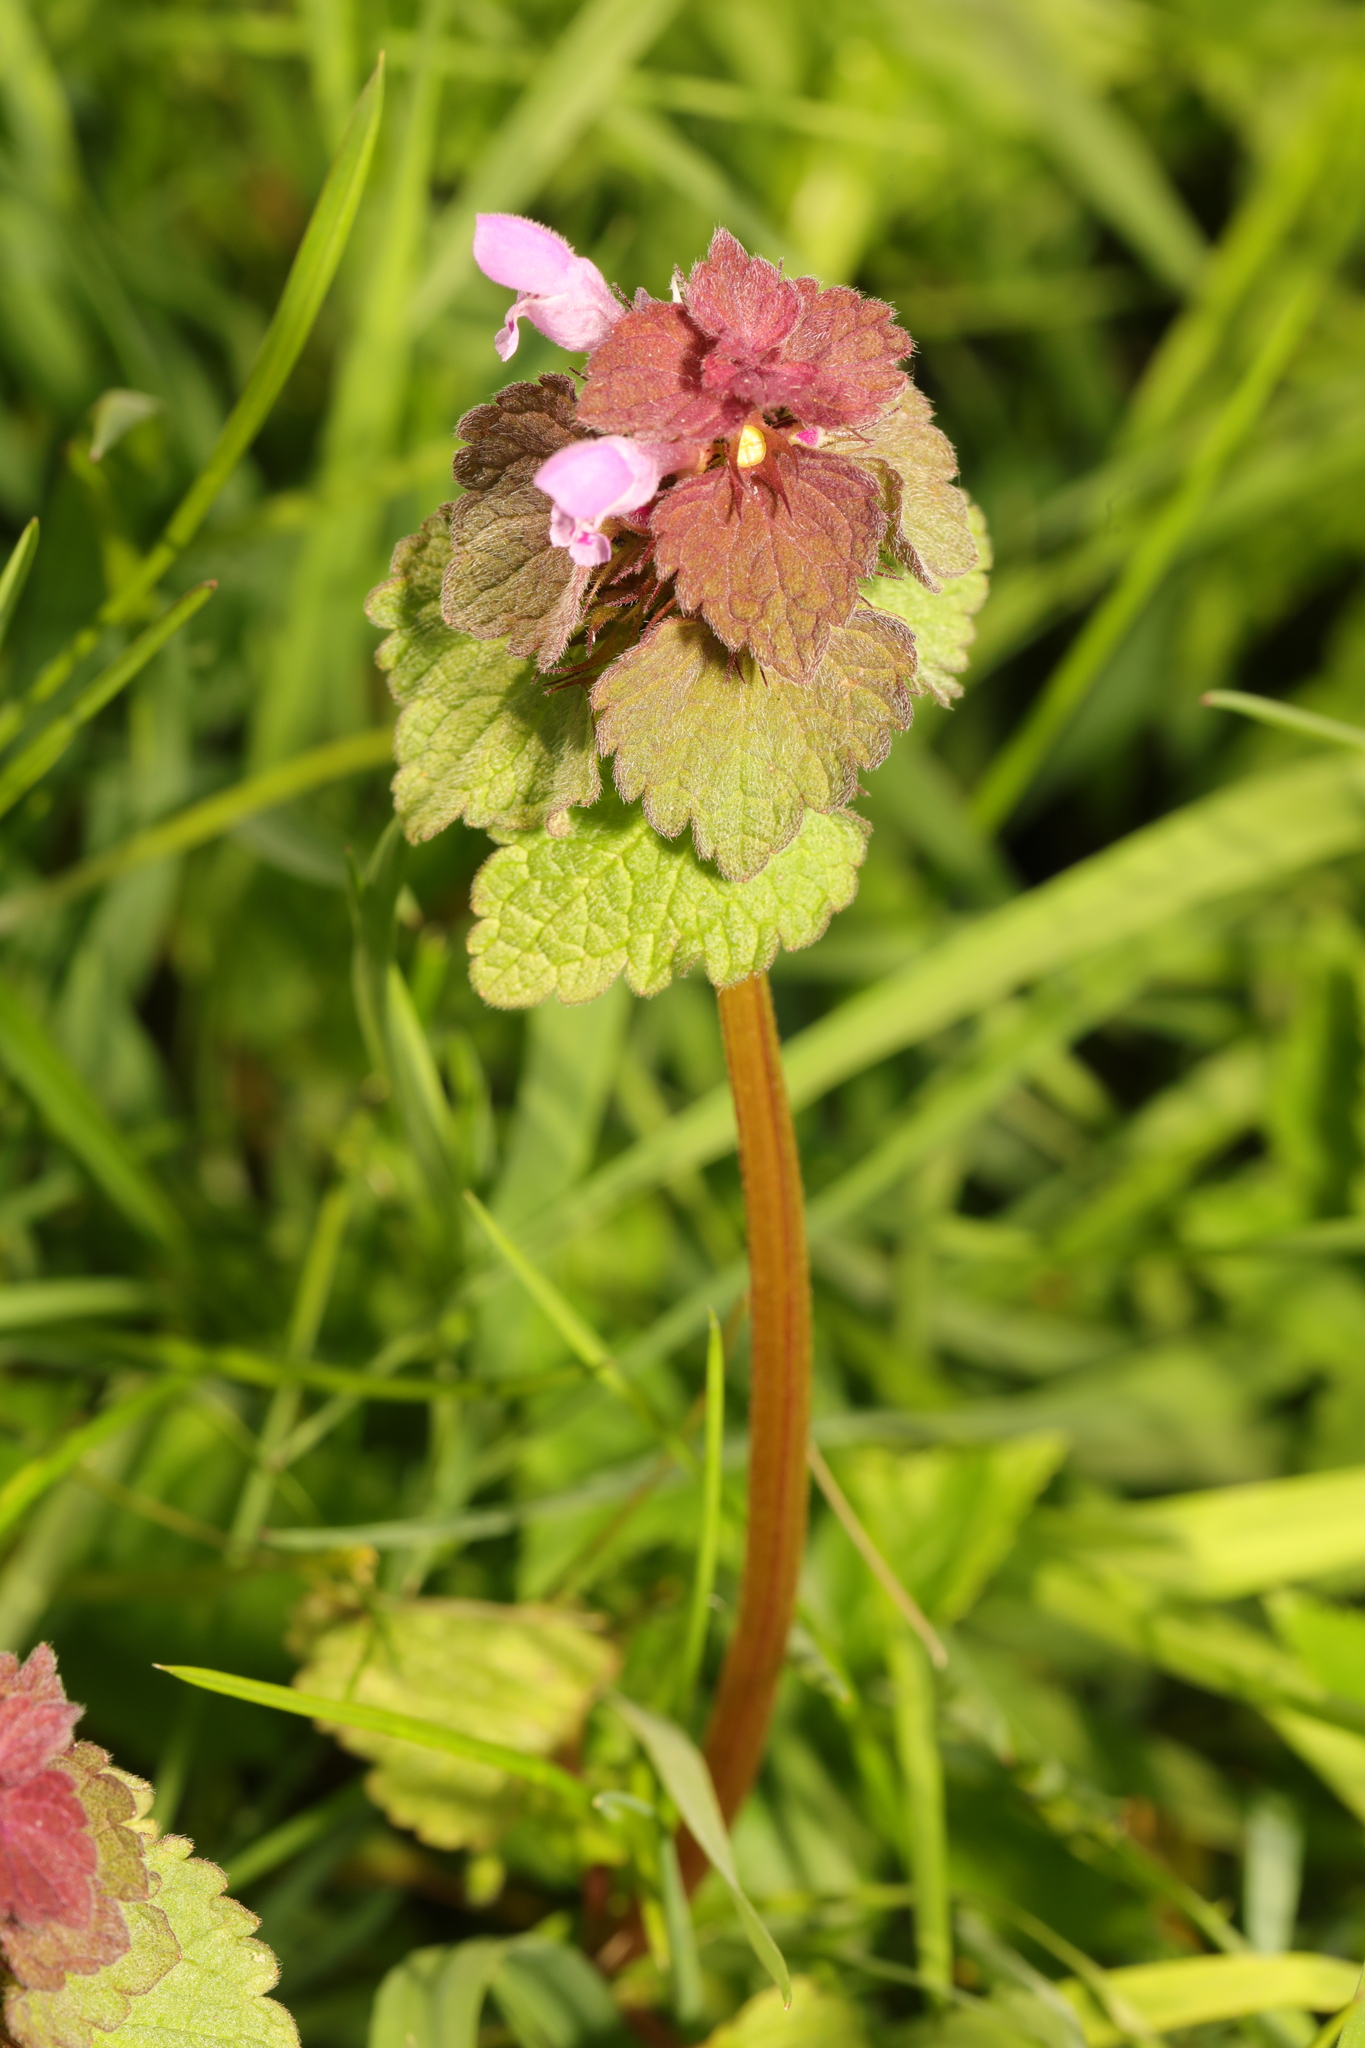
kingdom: Plantae
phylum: Tracheophyta
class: Magnoliopsida
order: Lamiales
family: Lamiaceae
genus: Lamium
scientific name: Lamium purpureum
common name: Red dead-nettle
